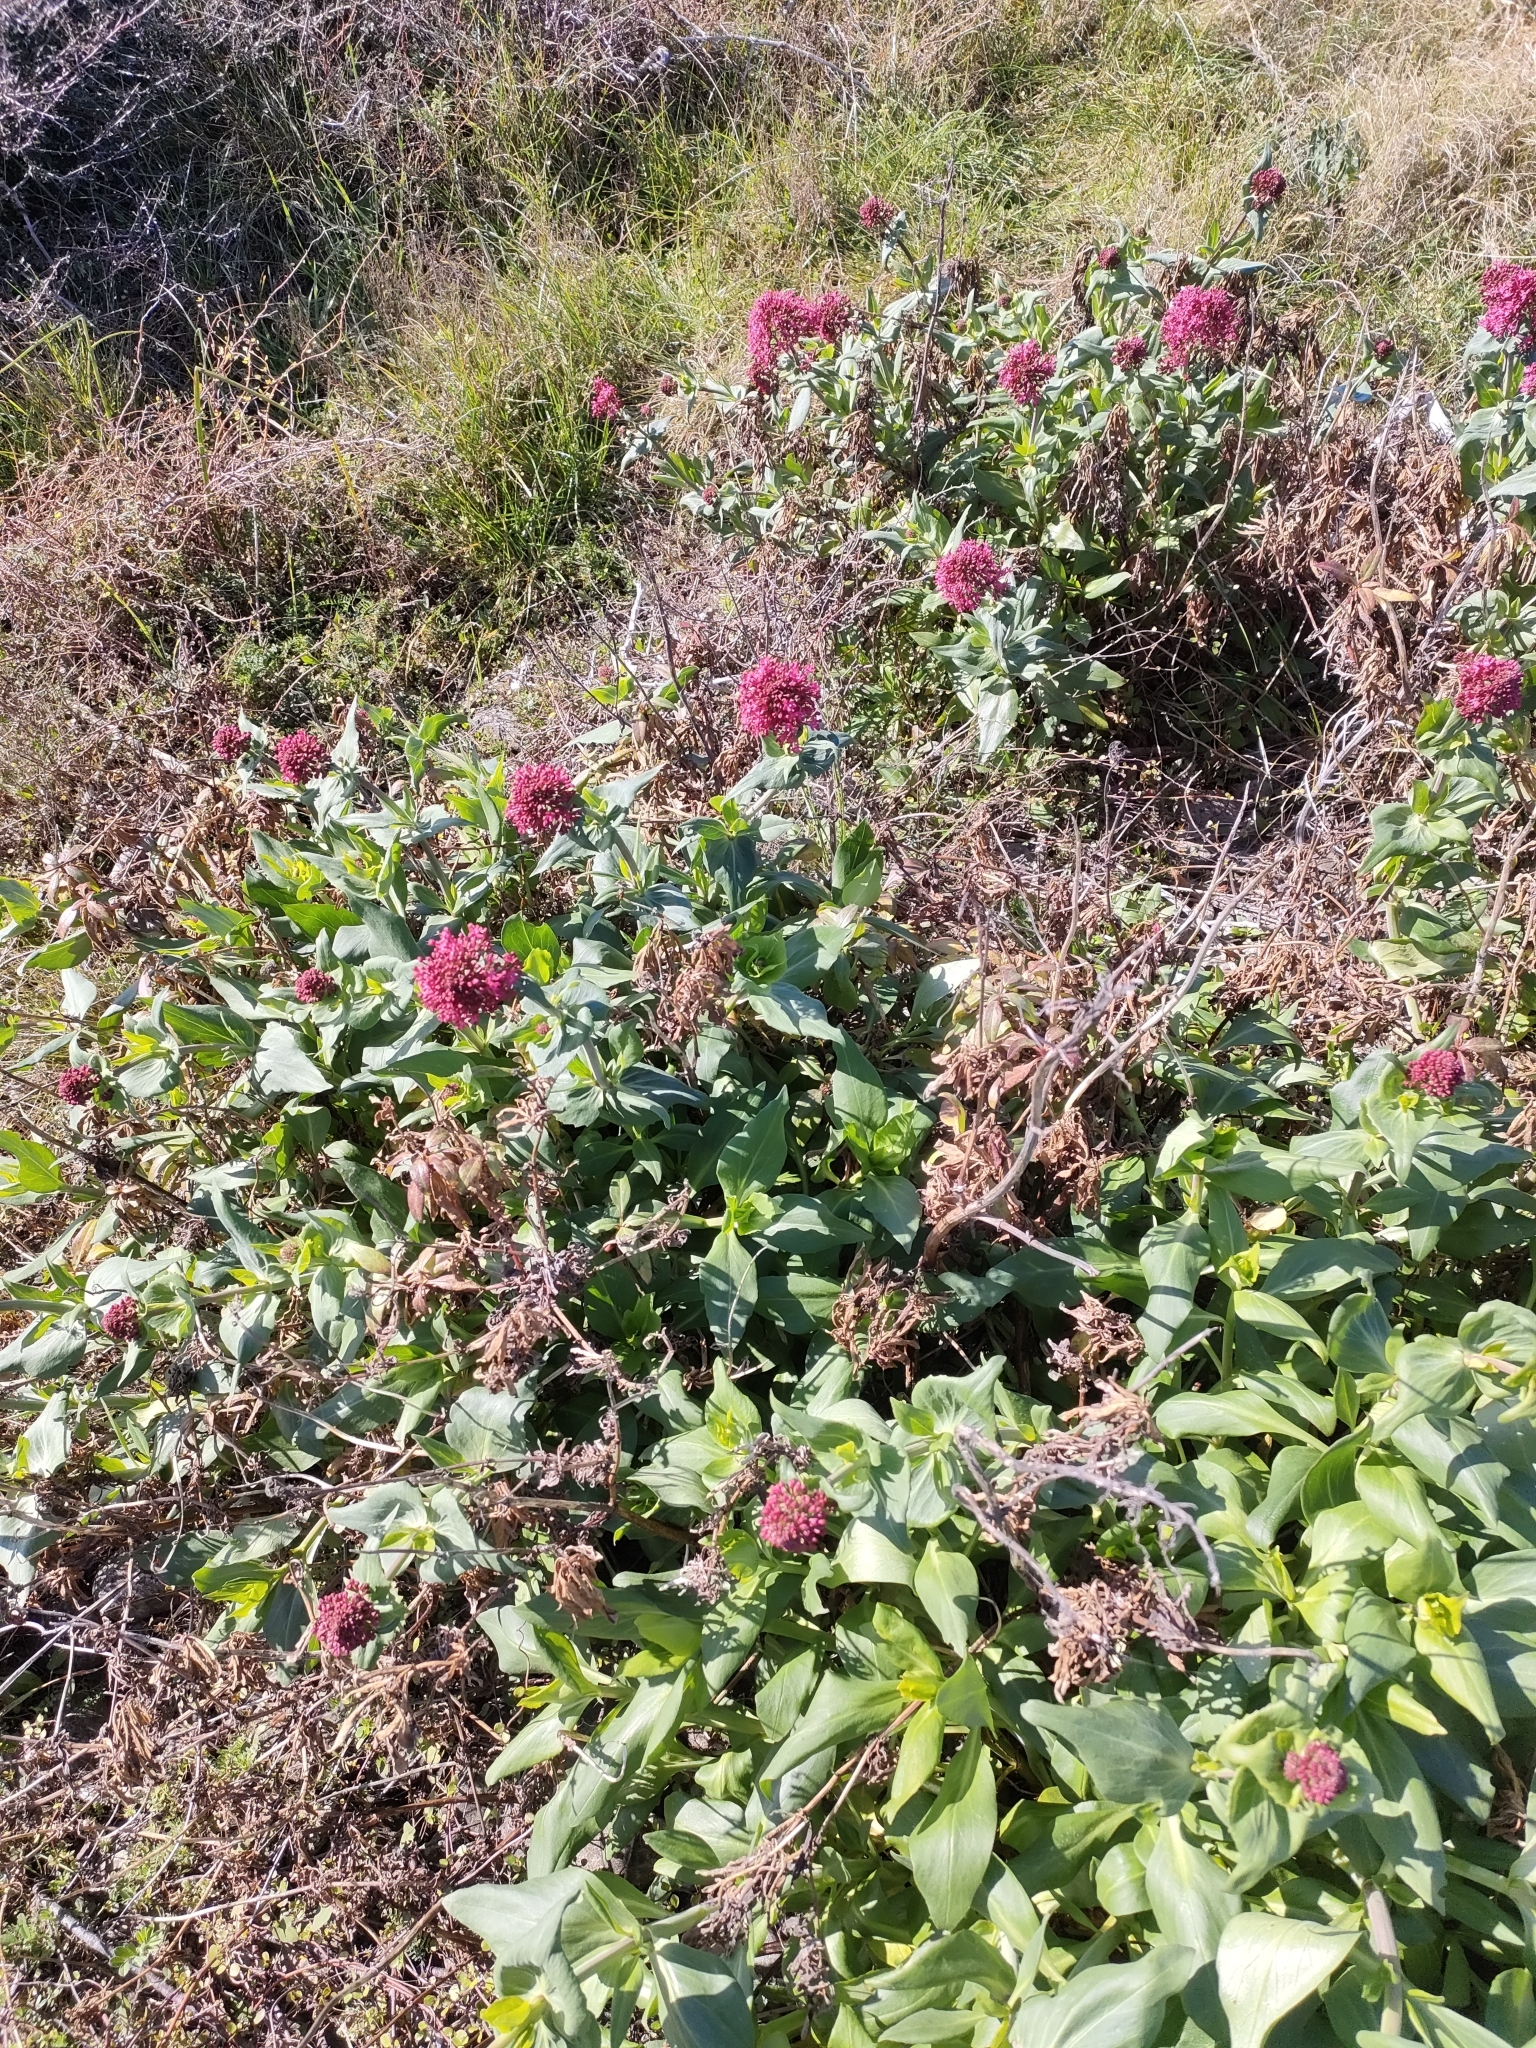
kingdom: Plantae
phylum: Tracheophyta
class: Magnoliopsida
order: Dipsacales
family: Caprifoliaceae
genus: Centranthus
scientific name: Centranthus ruber
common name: Red valerian
